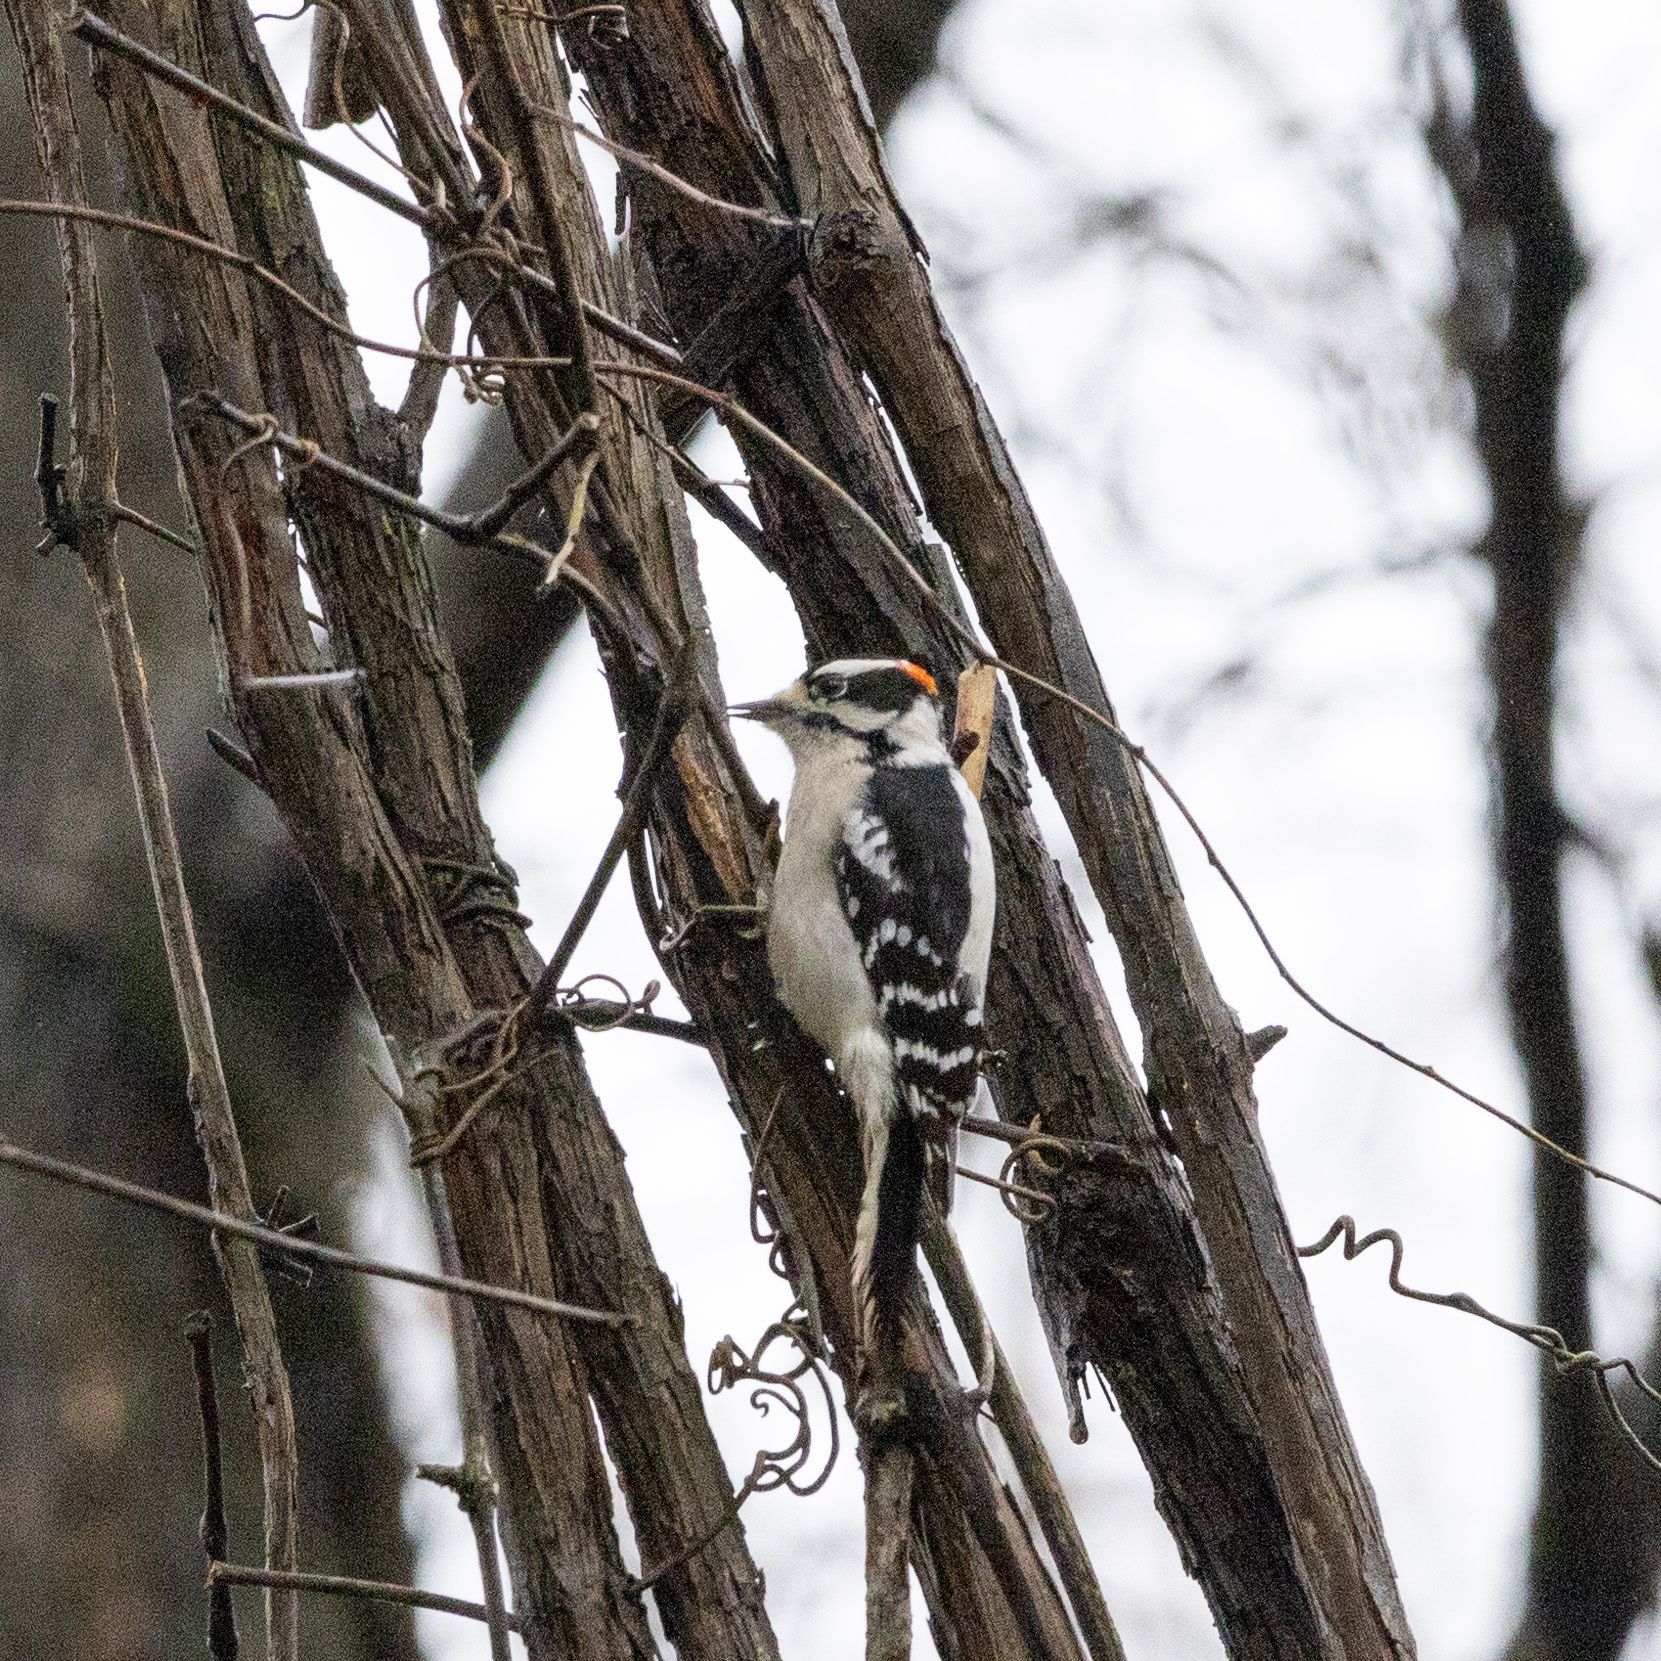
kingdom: Animalia
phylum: Chordata
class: Aves
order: Piciformes
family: Picidae
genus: Dryobates
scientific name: Dryobates pubescens
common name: Downy woodpecker
